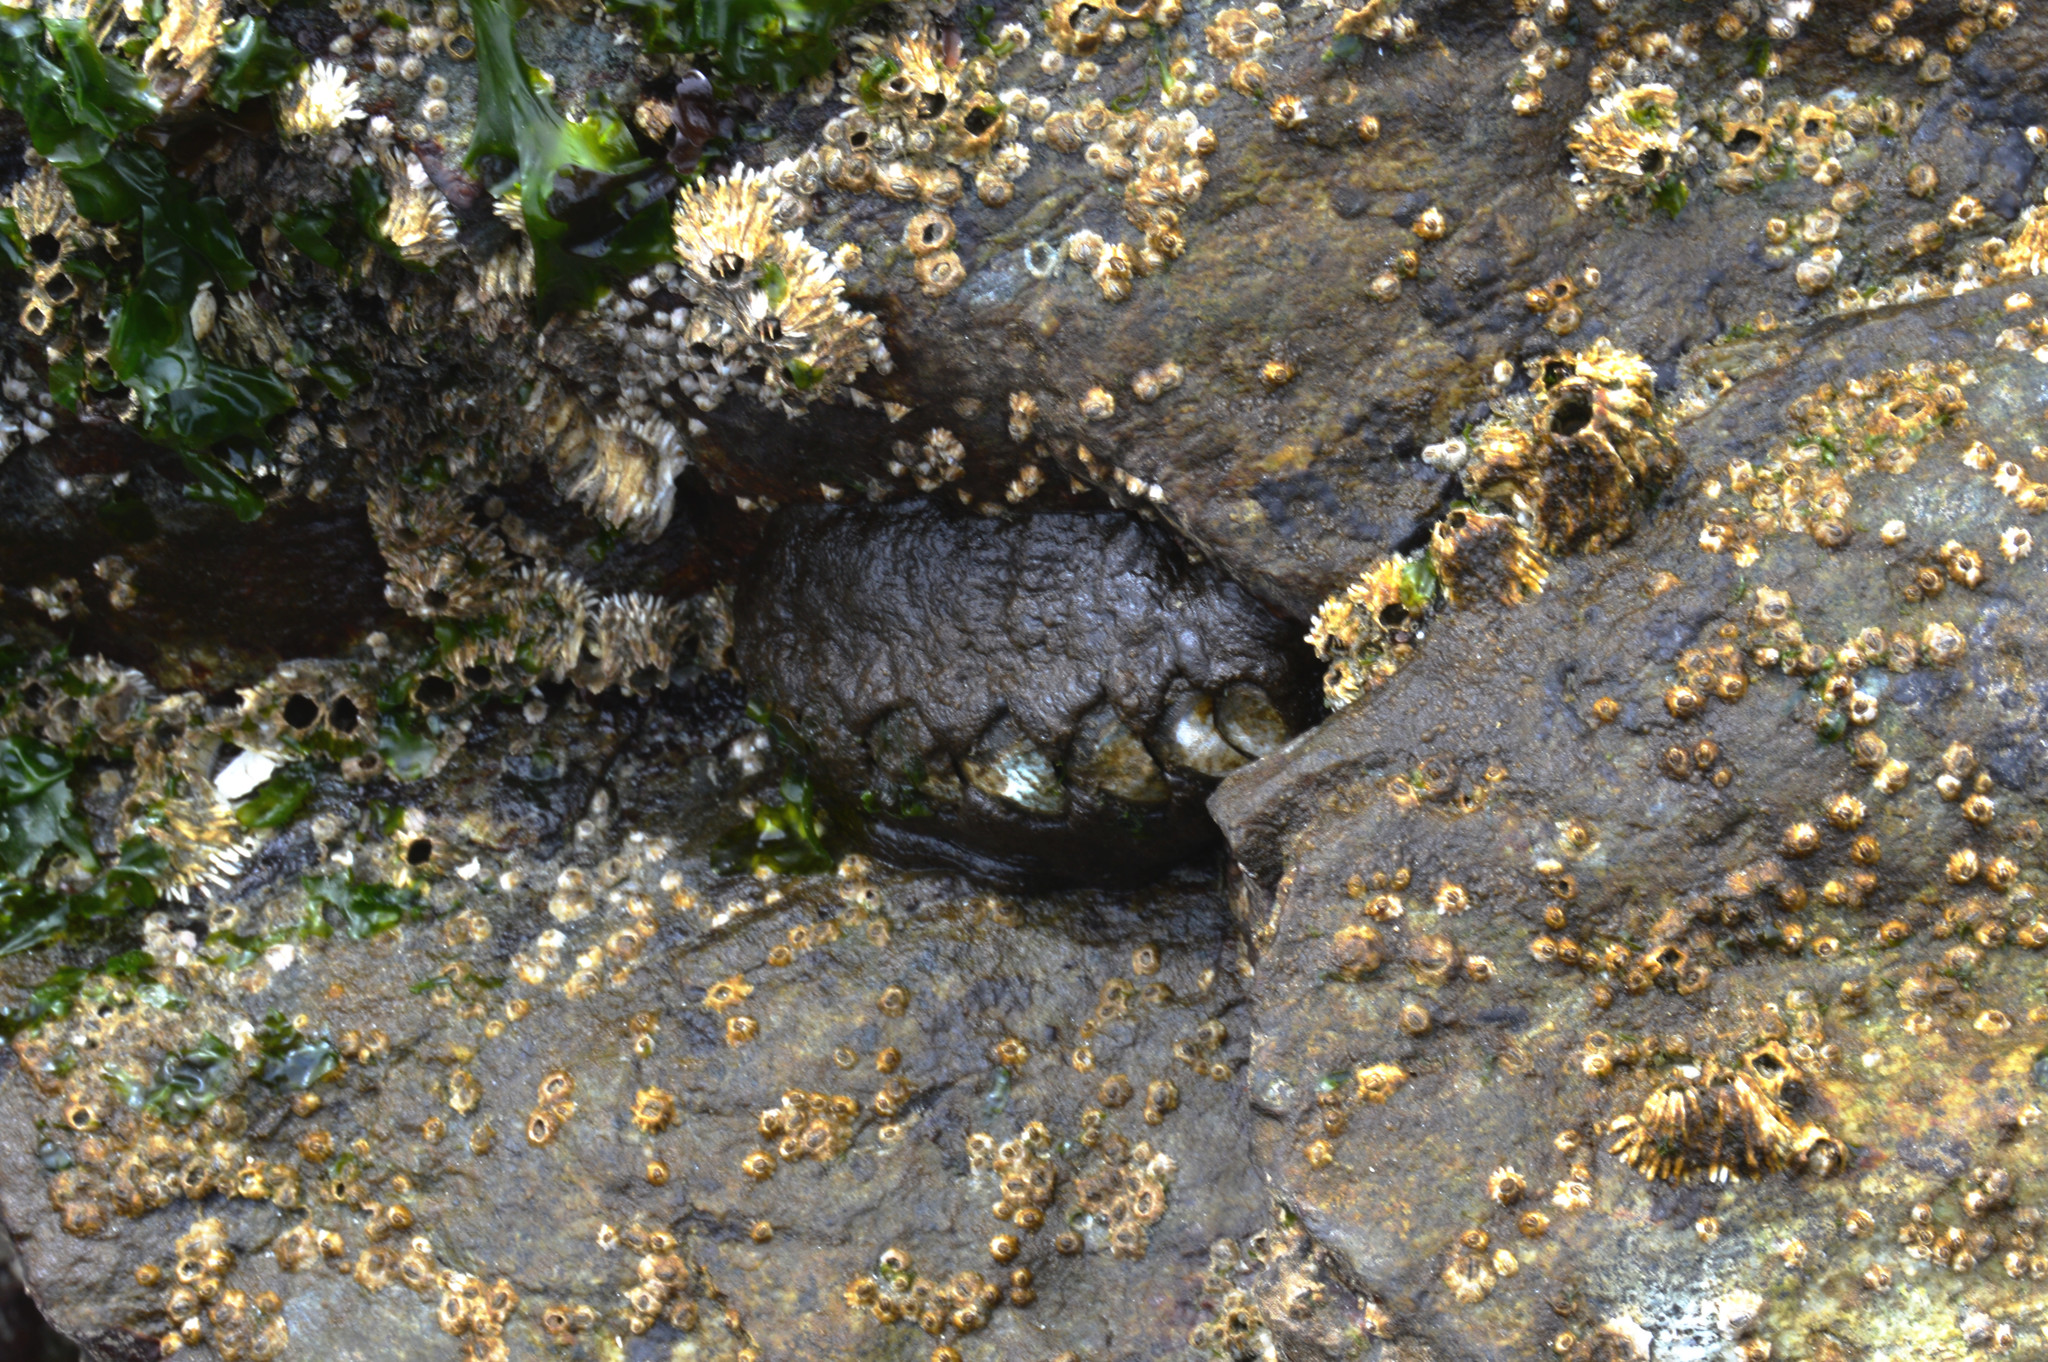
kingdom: Animalia
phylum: Mollusca
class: Polyplacophora
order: Chitonida
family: Mopaliidae
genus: Katharina
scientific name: Katharina tunicata
